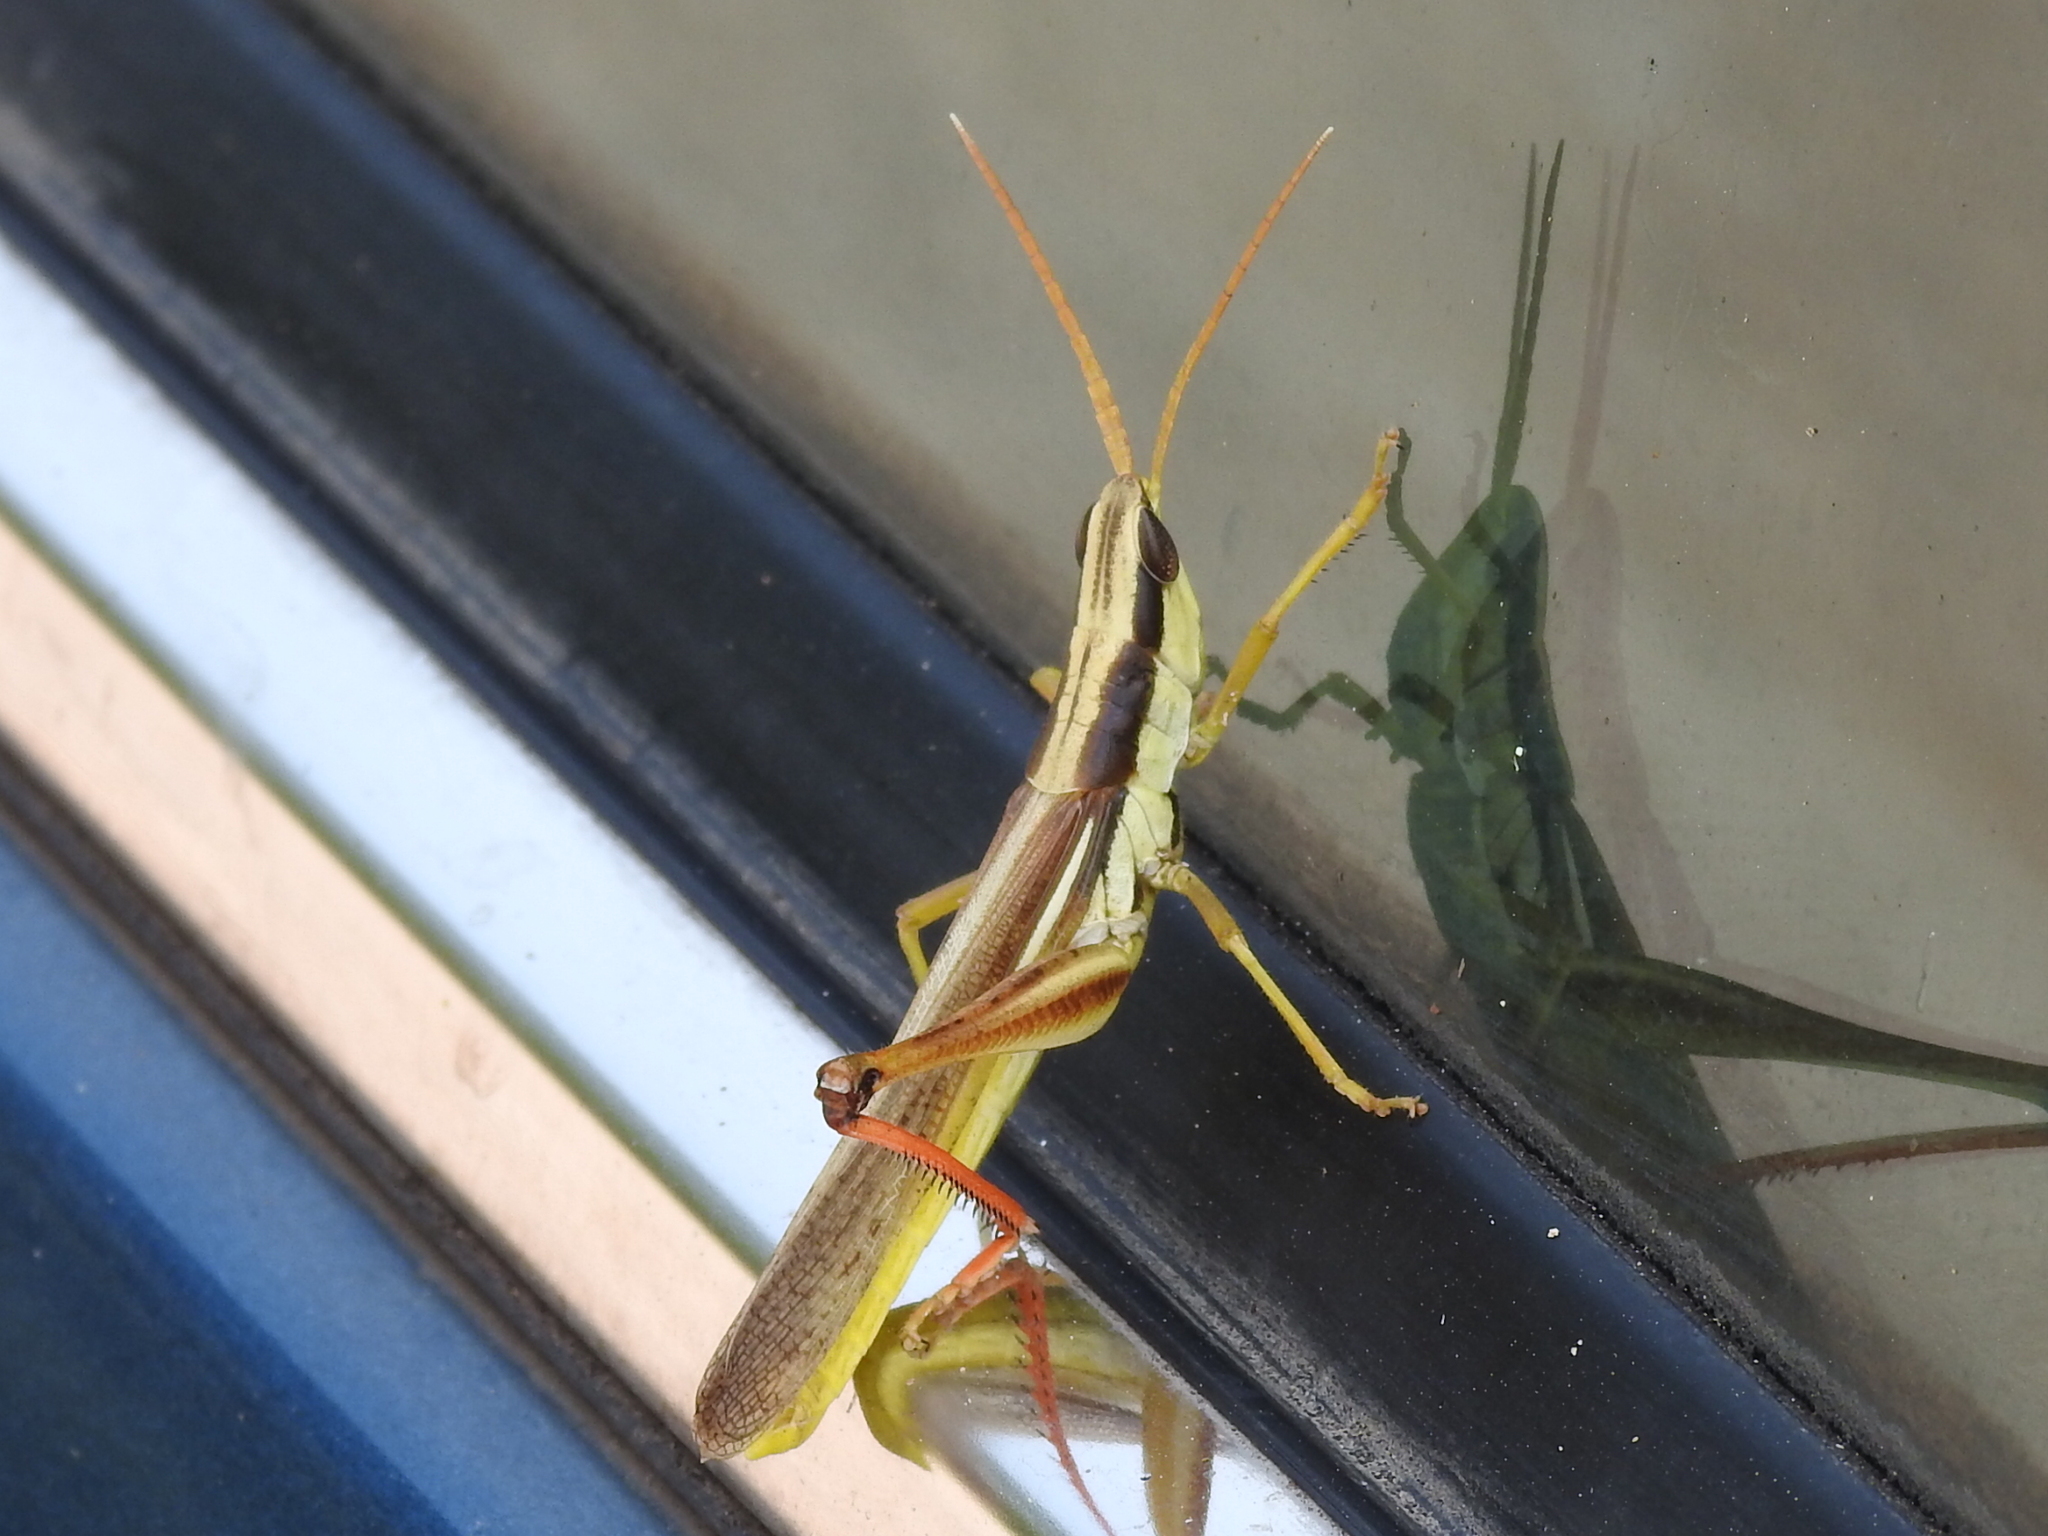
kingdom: Animalia
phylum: Arthropoda
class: Insecta
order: Orthoptera
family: Acrididae
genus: Mermiria
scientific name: Mermiria bivittata
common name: Two-striped mermiria grasshopper
